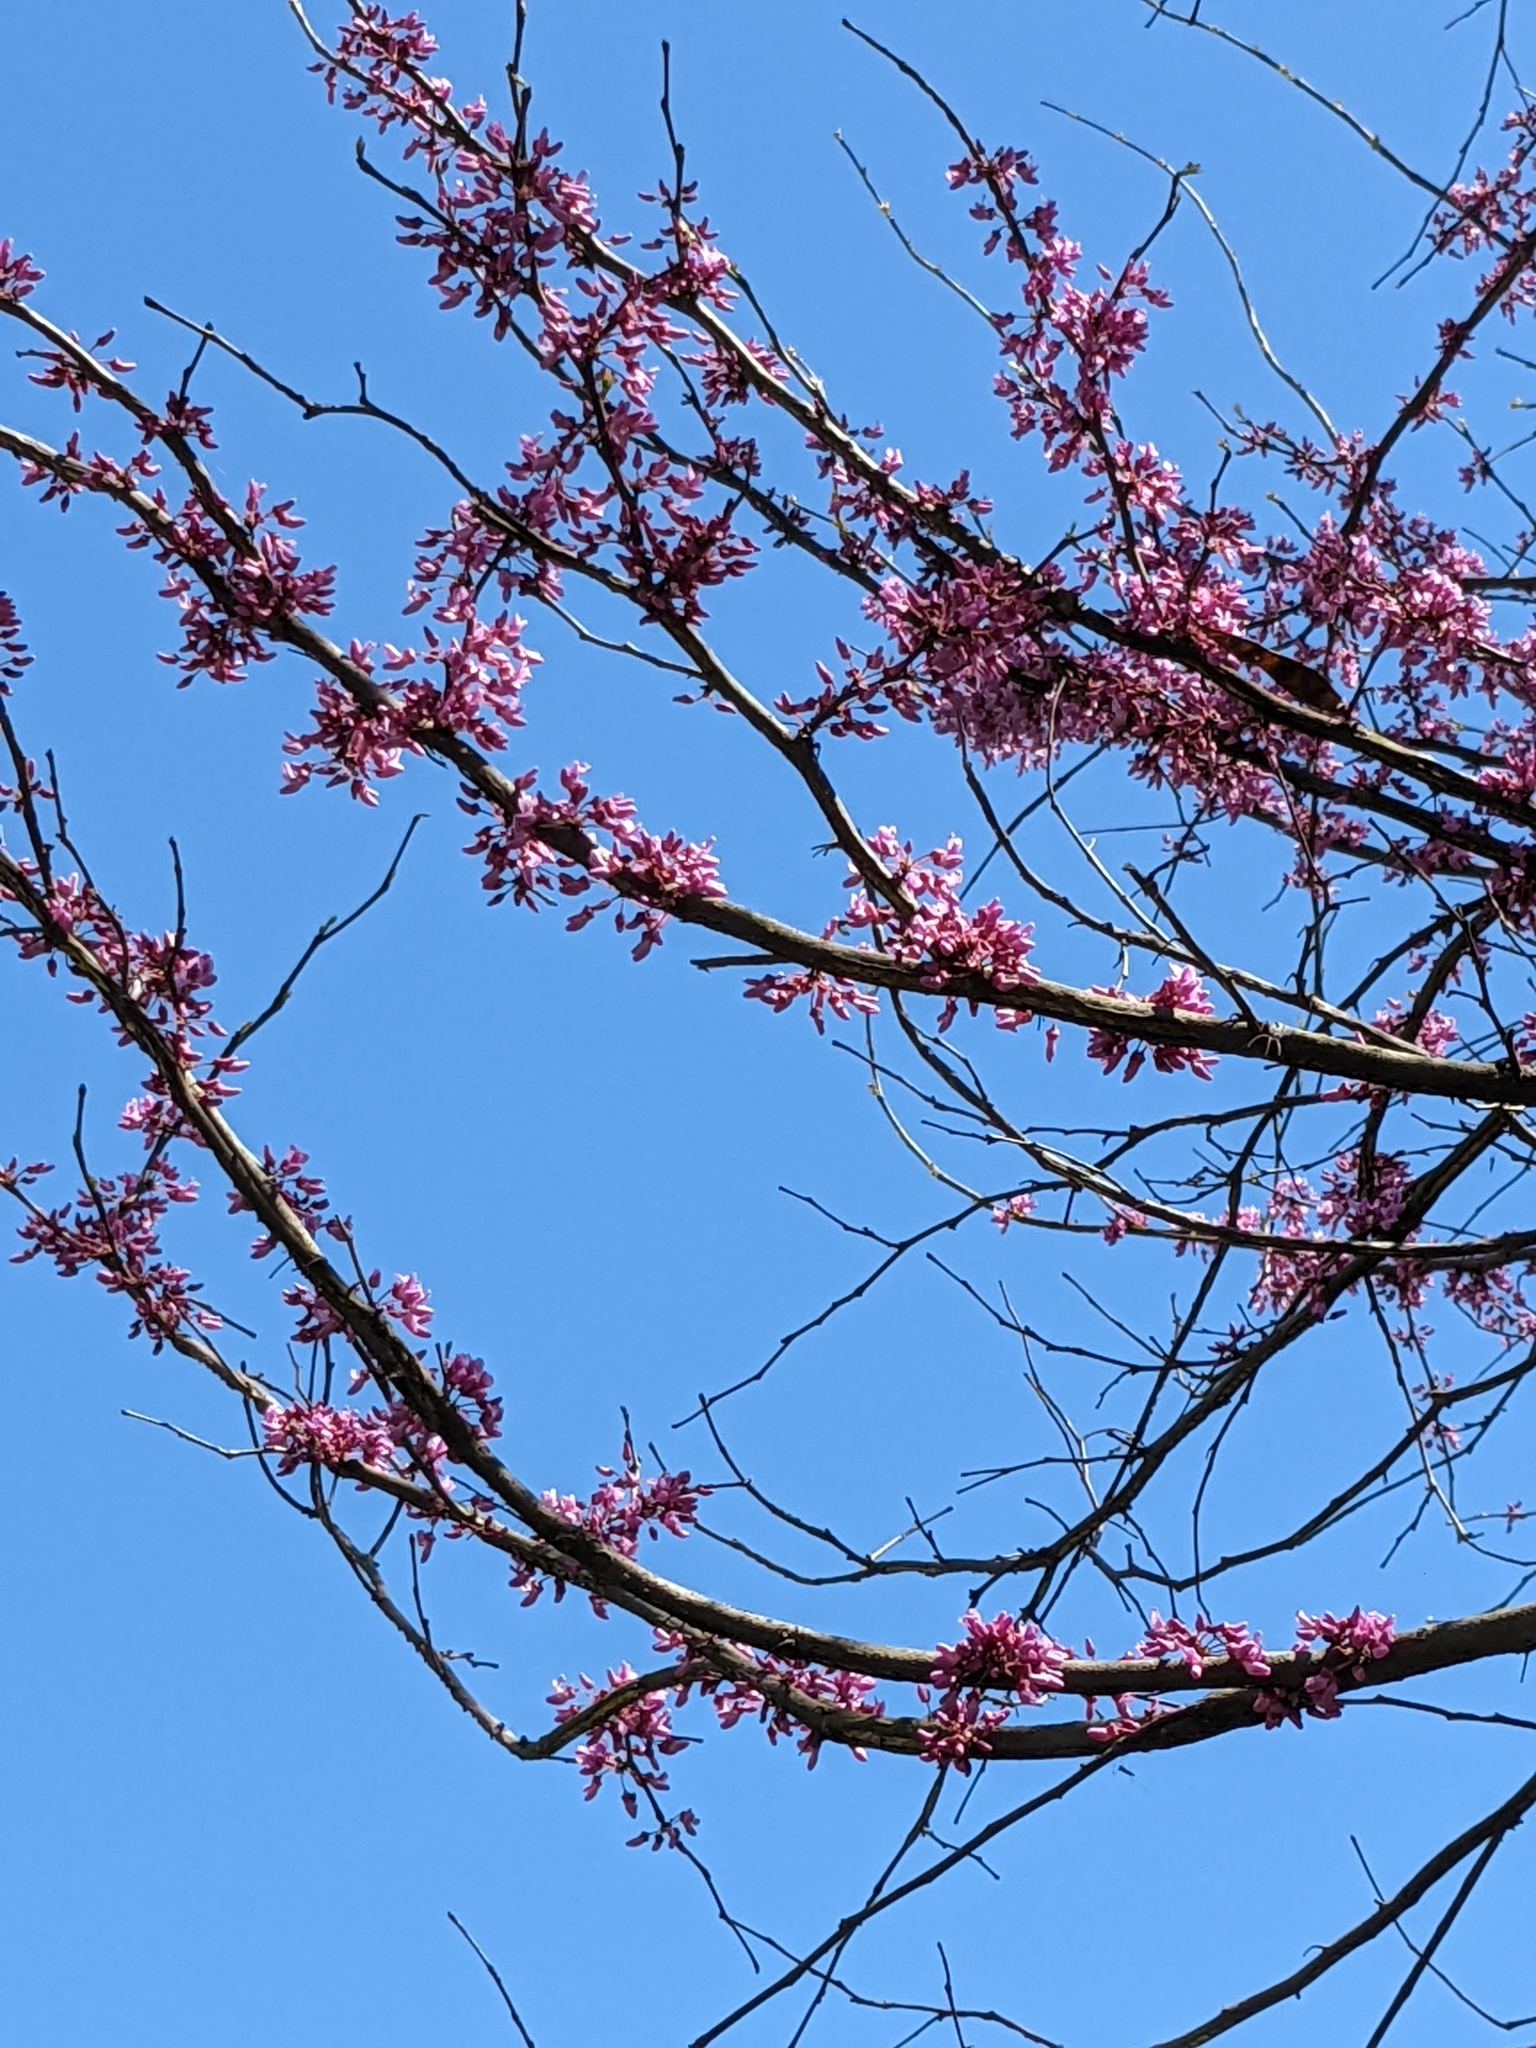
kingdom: Plantae
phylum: Tracheophyta
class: Magnoliopsida
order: Fabales
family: Fabaceae
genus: Cercis
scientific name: Cercis canadensis
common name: Eastern redbud
